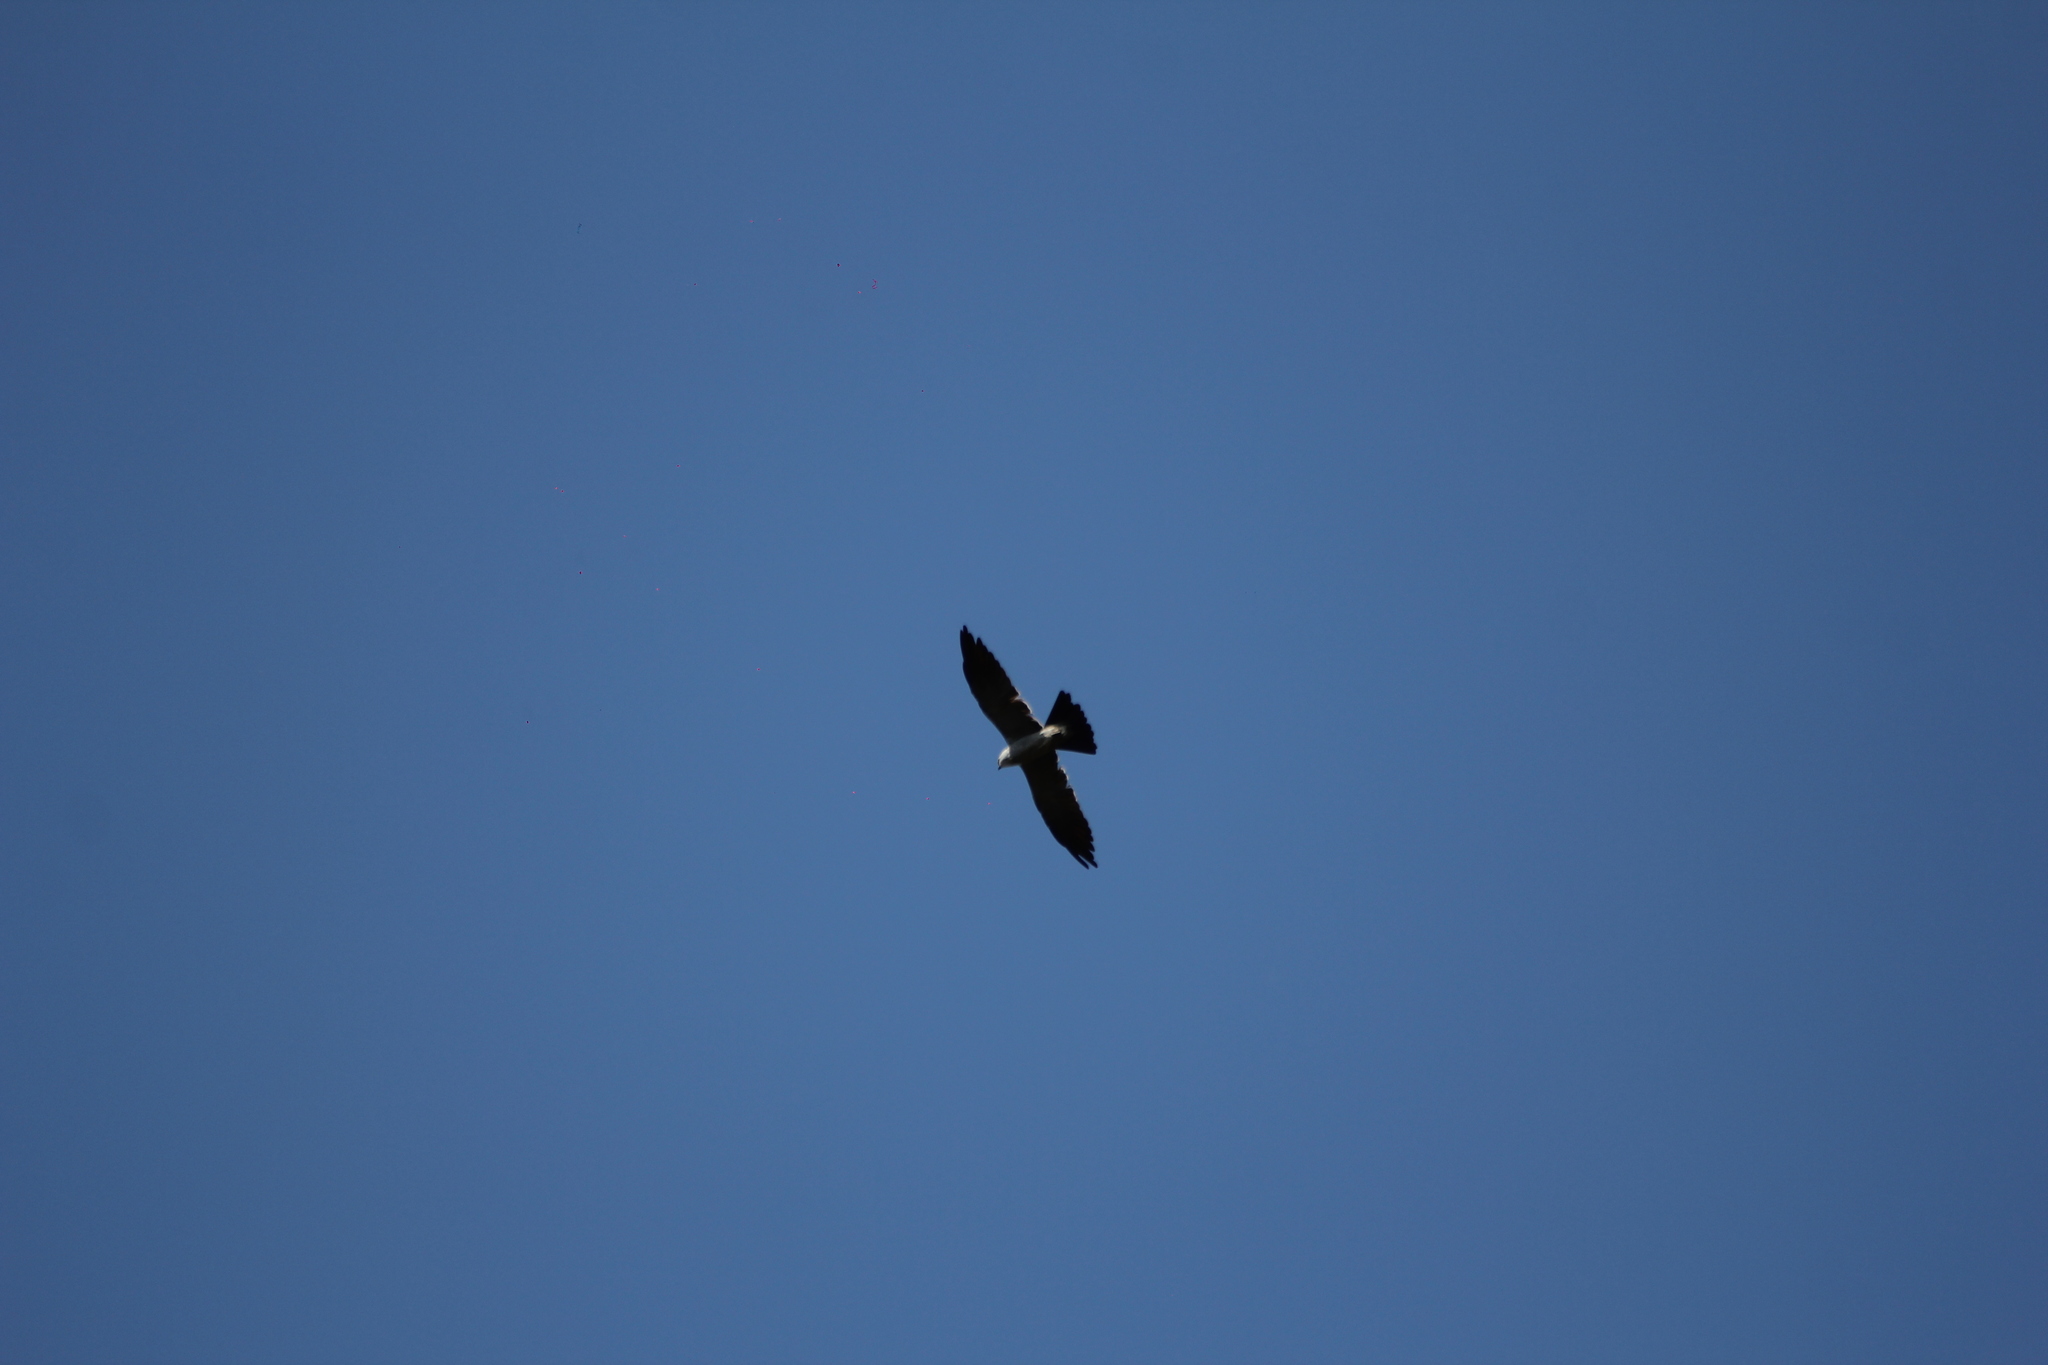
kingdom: Animalia
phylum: Chordata
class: Aves
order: Accipitriformes
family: Accipitridae
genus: Ictinia
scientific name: Ictinia mississippiensis
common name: Mississippi kite
